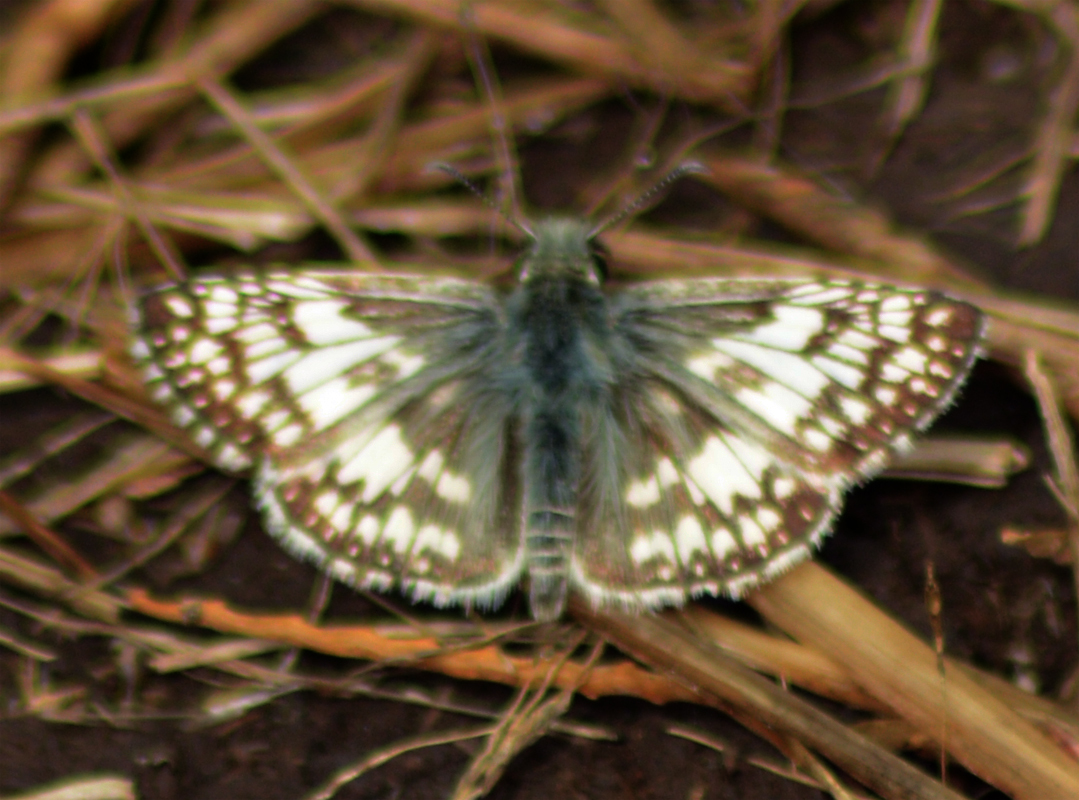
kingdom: Animalia
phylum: Arthropoda
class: Insecta
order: Lepidoptera
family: Hesperiidae
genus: Burnsius
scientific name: Burnsius albezens
